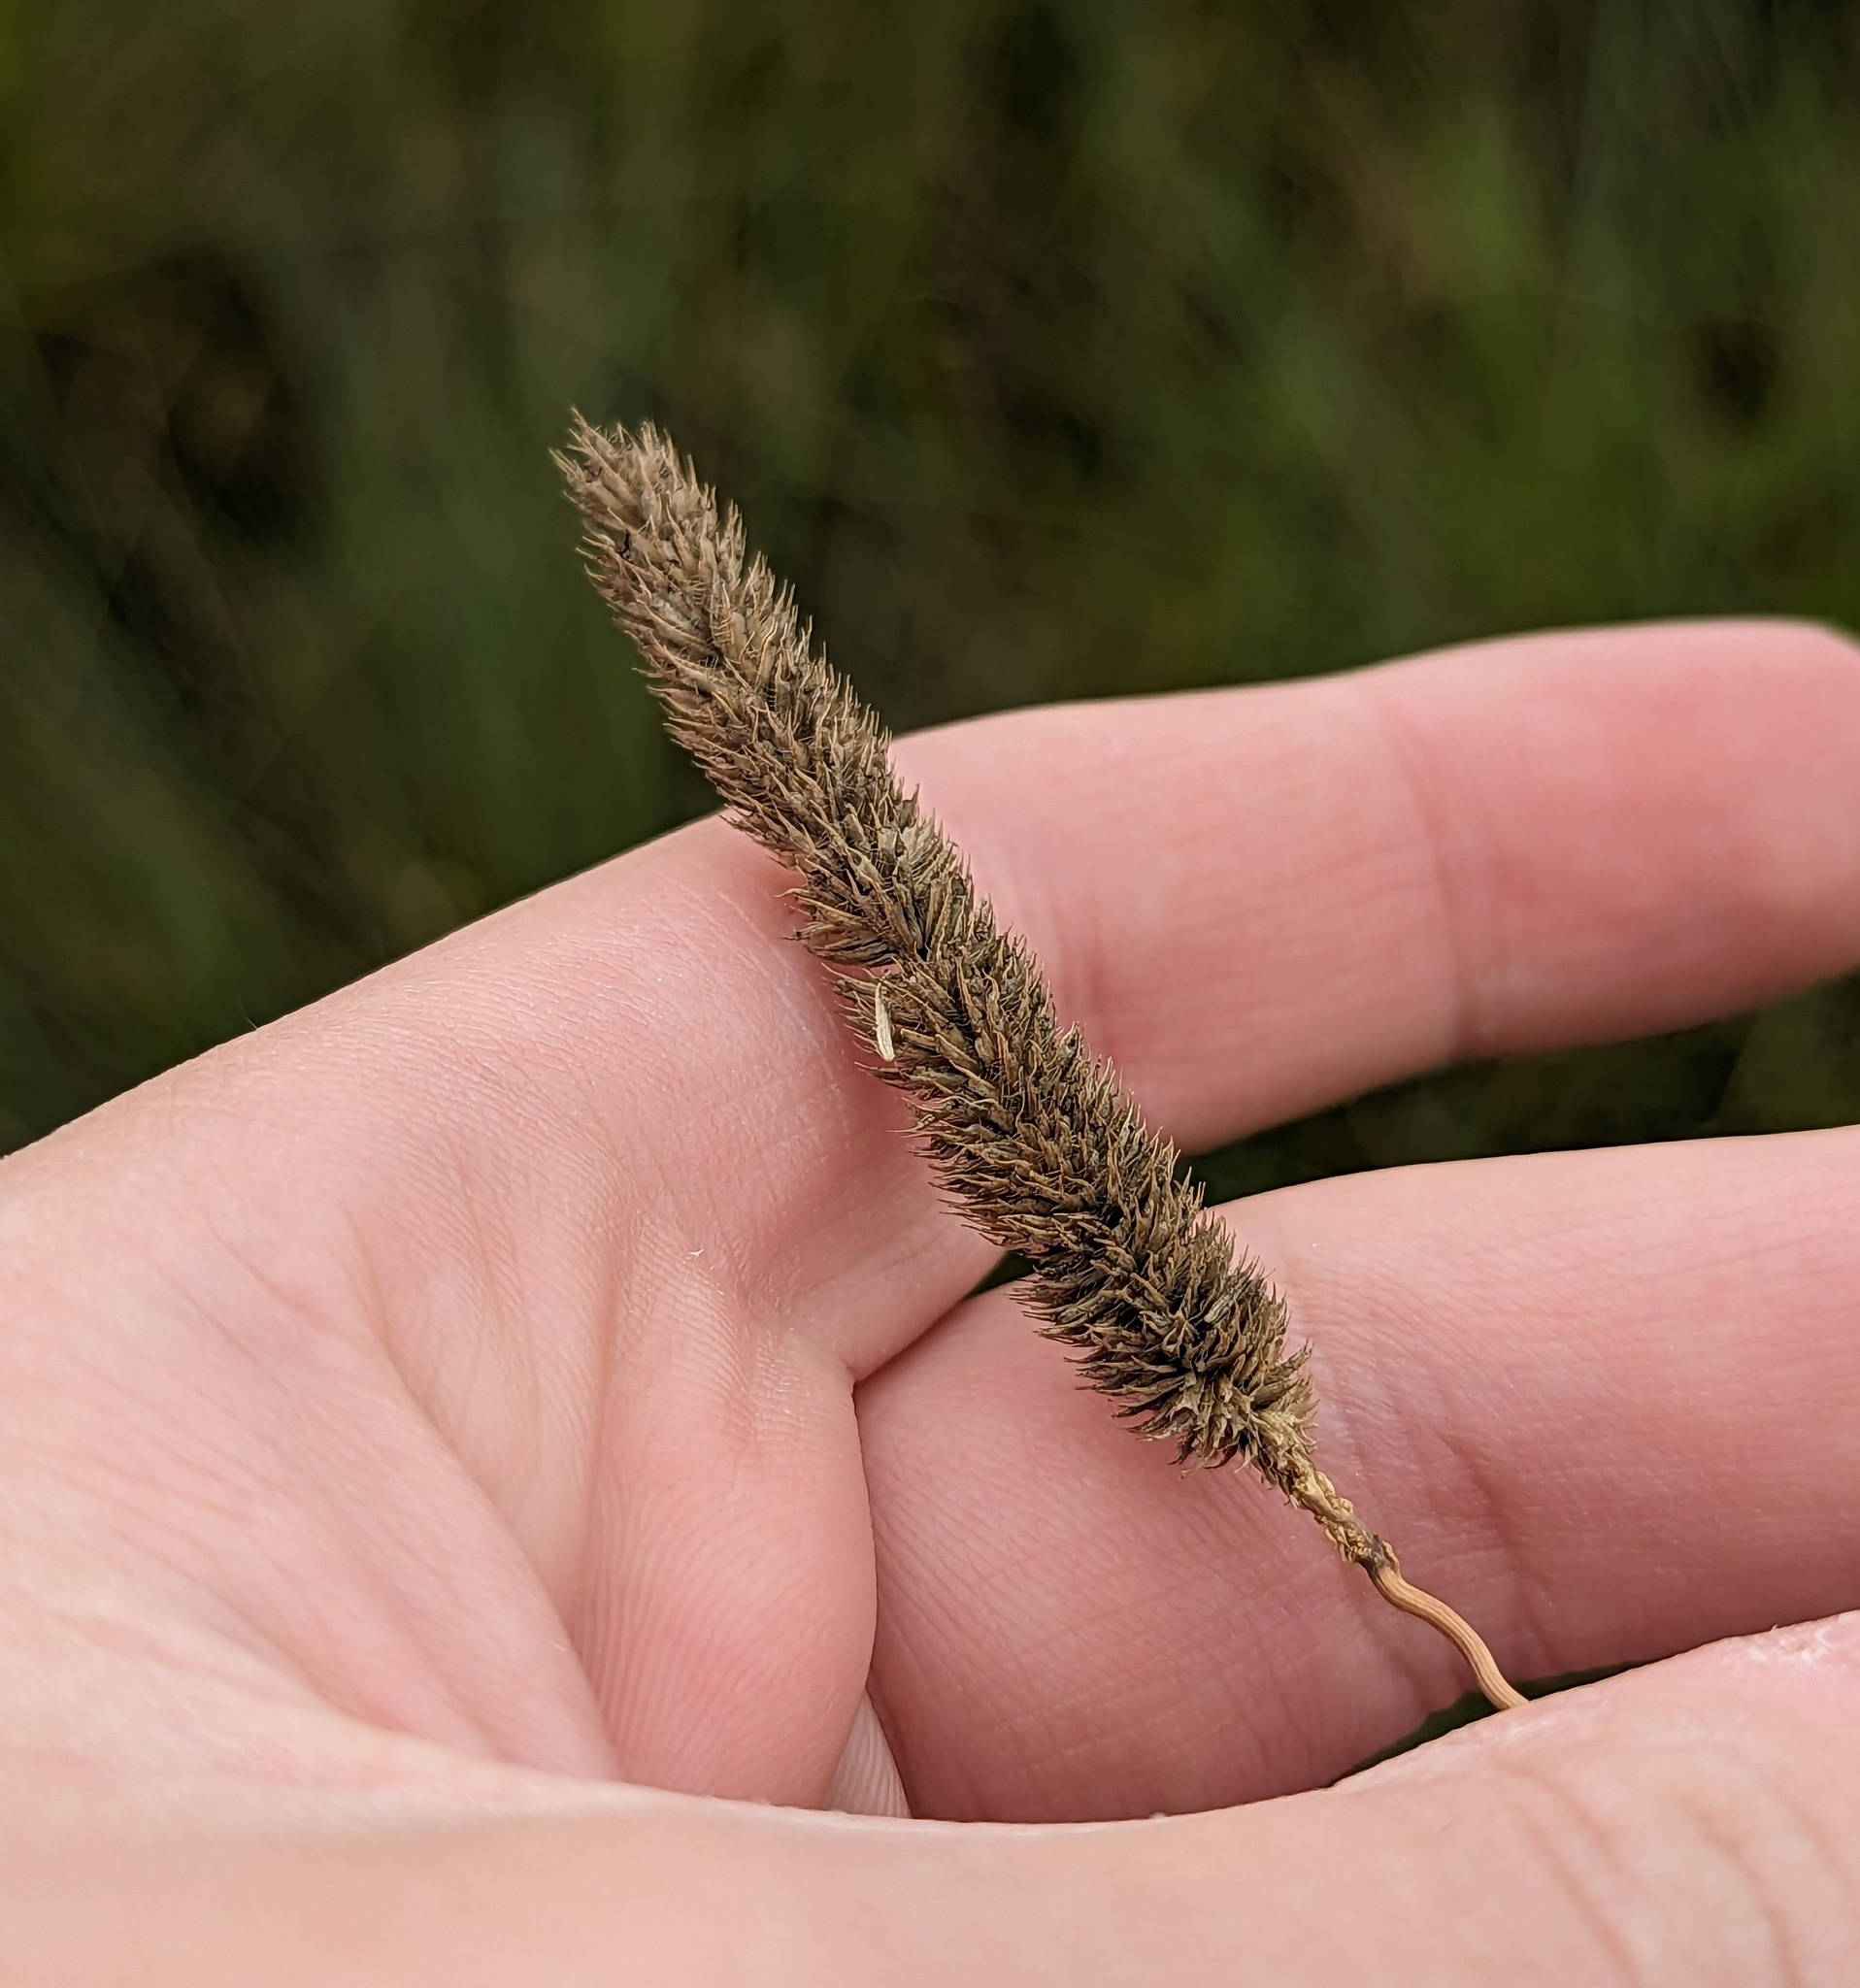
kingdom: Plantae
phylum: Tracheophyta
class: Liliopsida
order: Poales
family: Poaceae
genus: Phleum
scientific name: Phleum pratense
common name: Timothy grass
